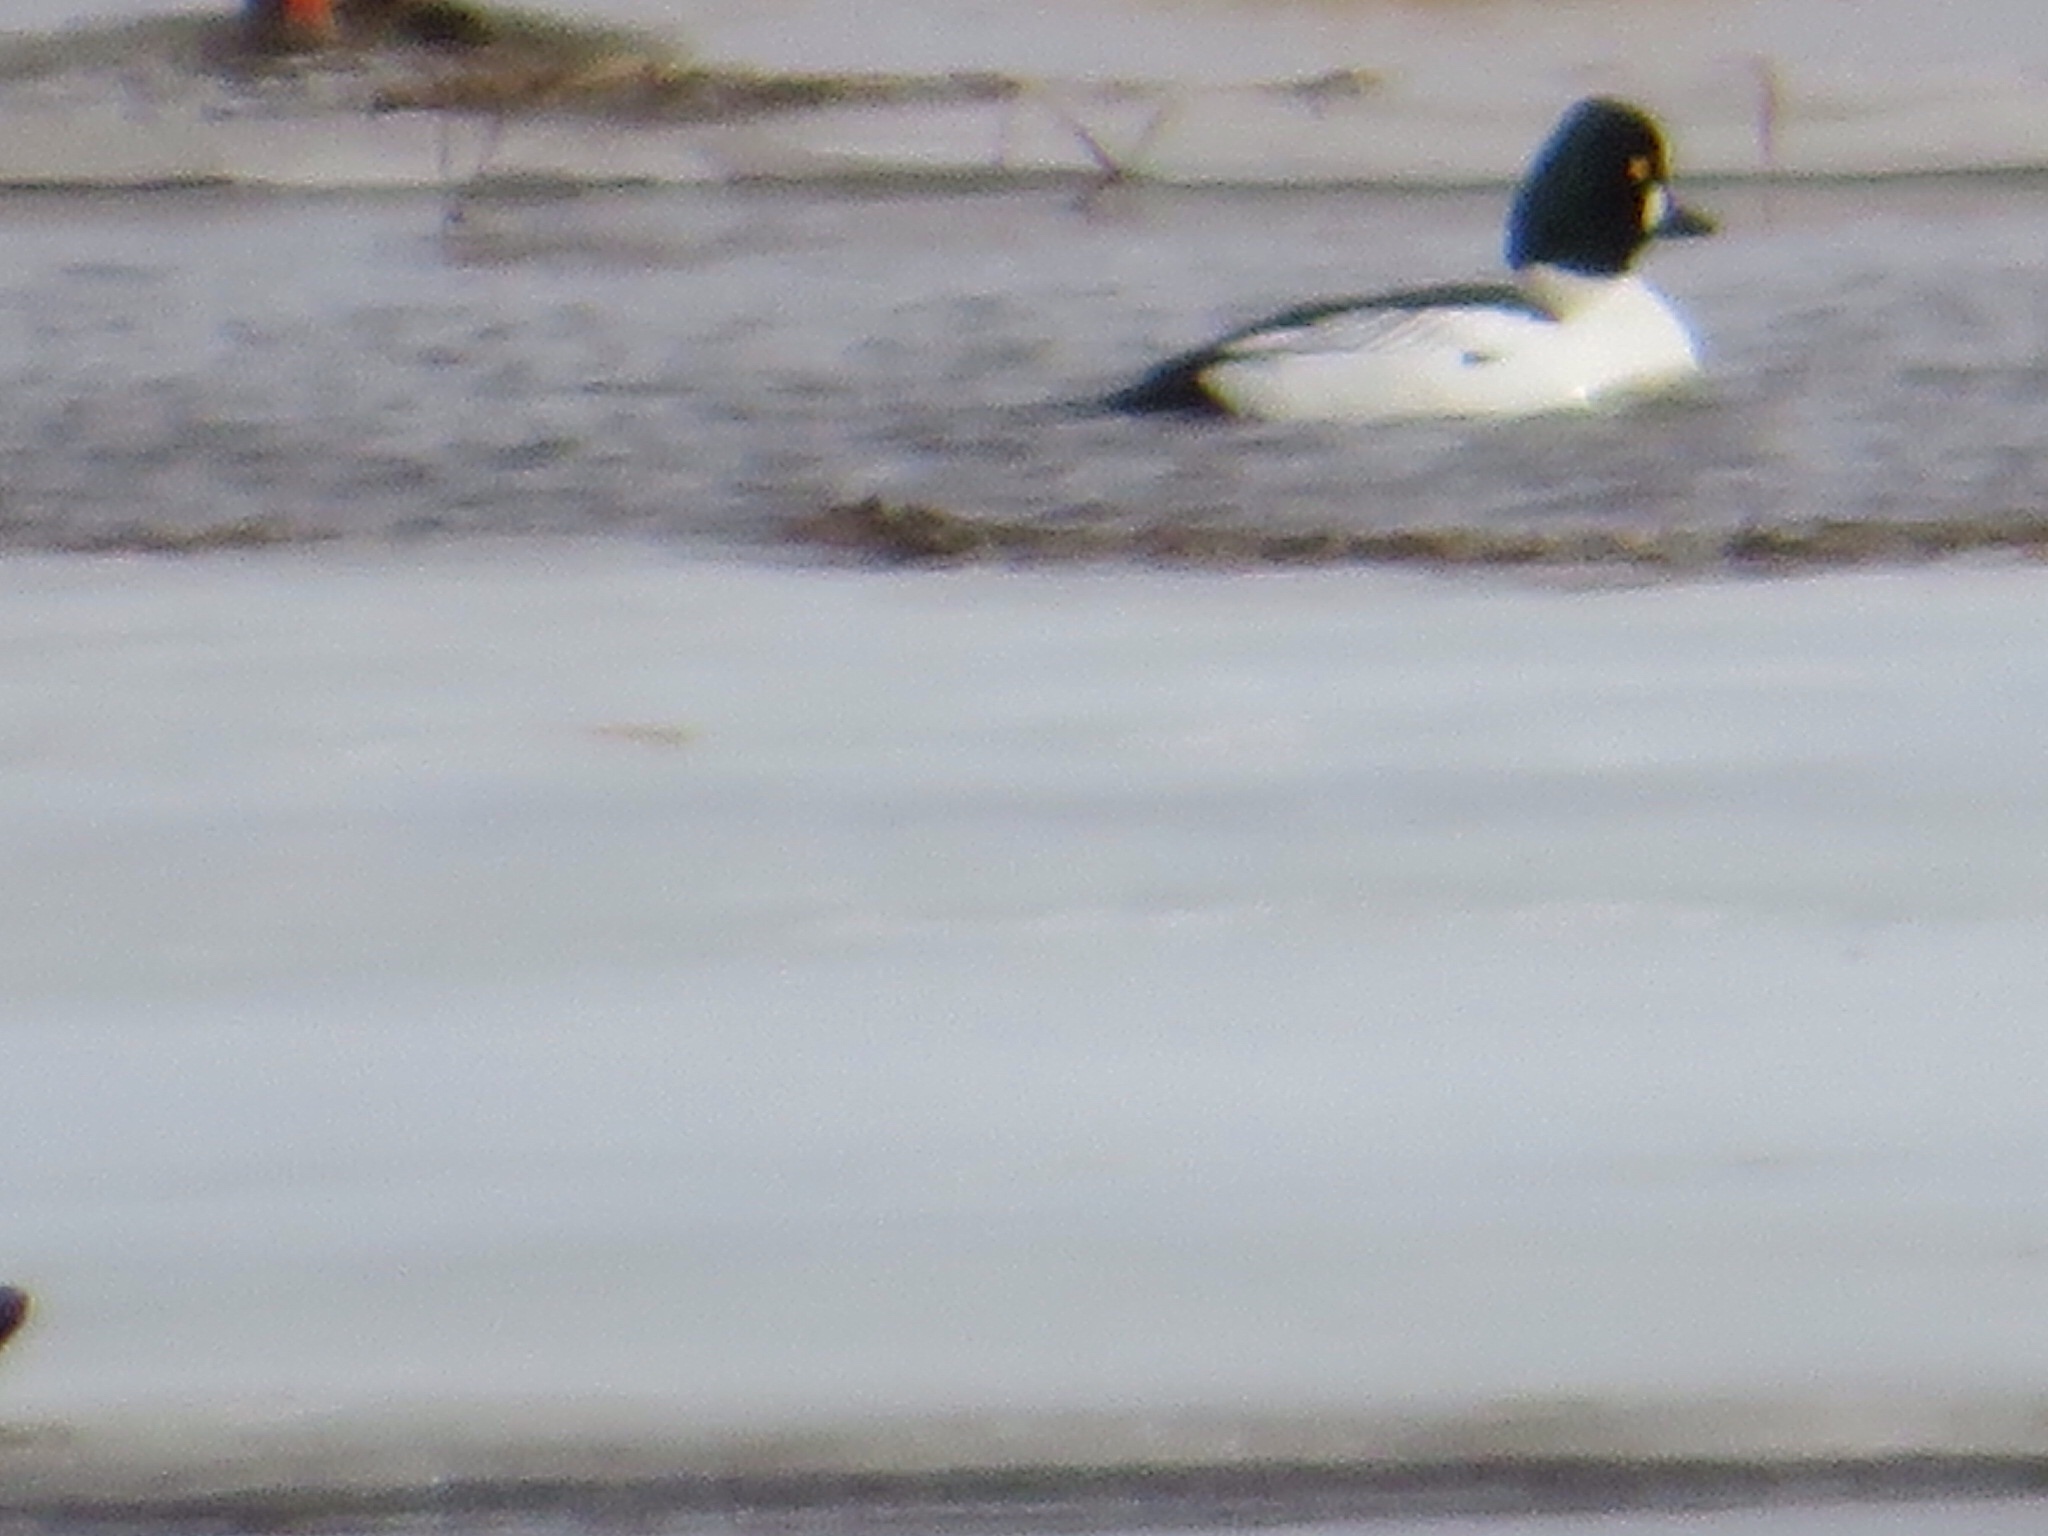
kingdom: Animalia
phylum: Chordata
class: Aves
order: Anseriformes
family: Anatidae
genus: Bucephala
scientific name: Bucephala clangula
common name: Common goldeneye
